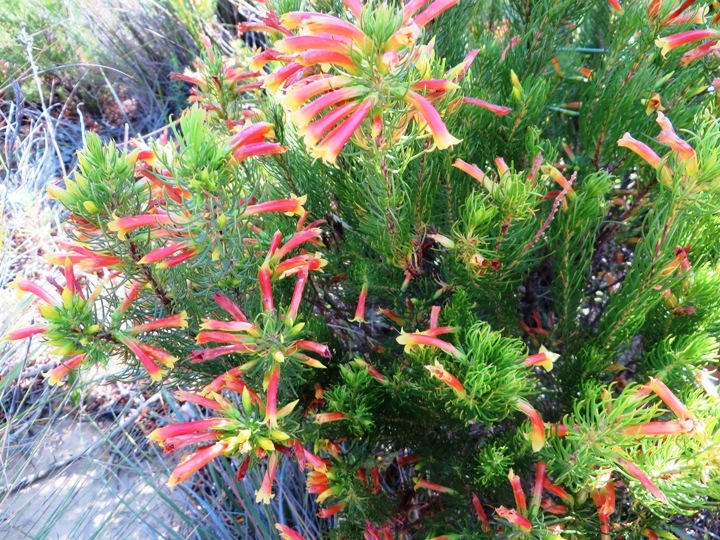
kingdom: Plantae
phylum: Tracheophyta
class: Magnoliopsida
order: Ericales
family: Ericaceae
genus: Erica
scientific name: Erica grandiflora
